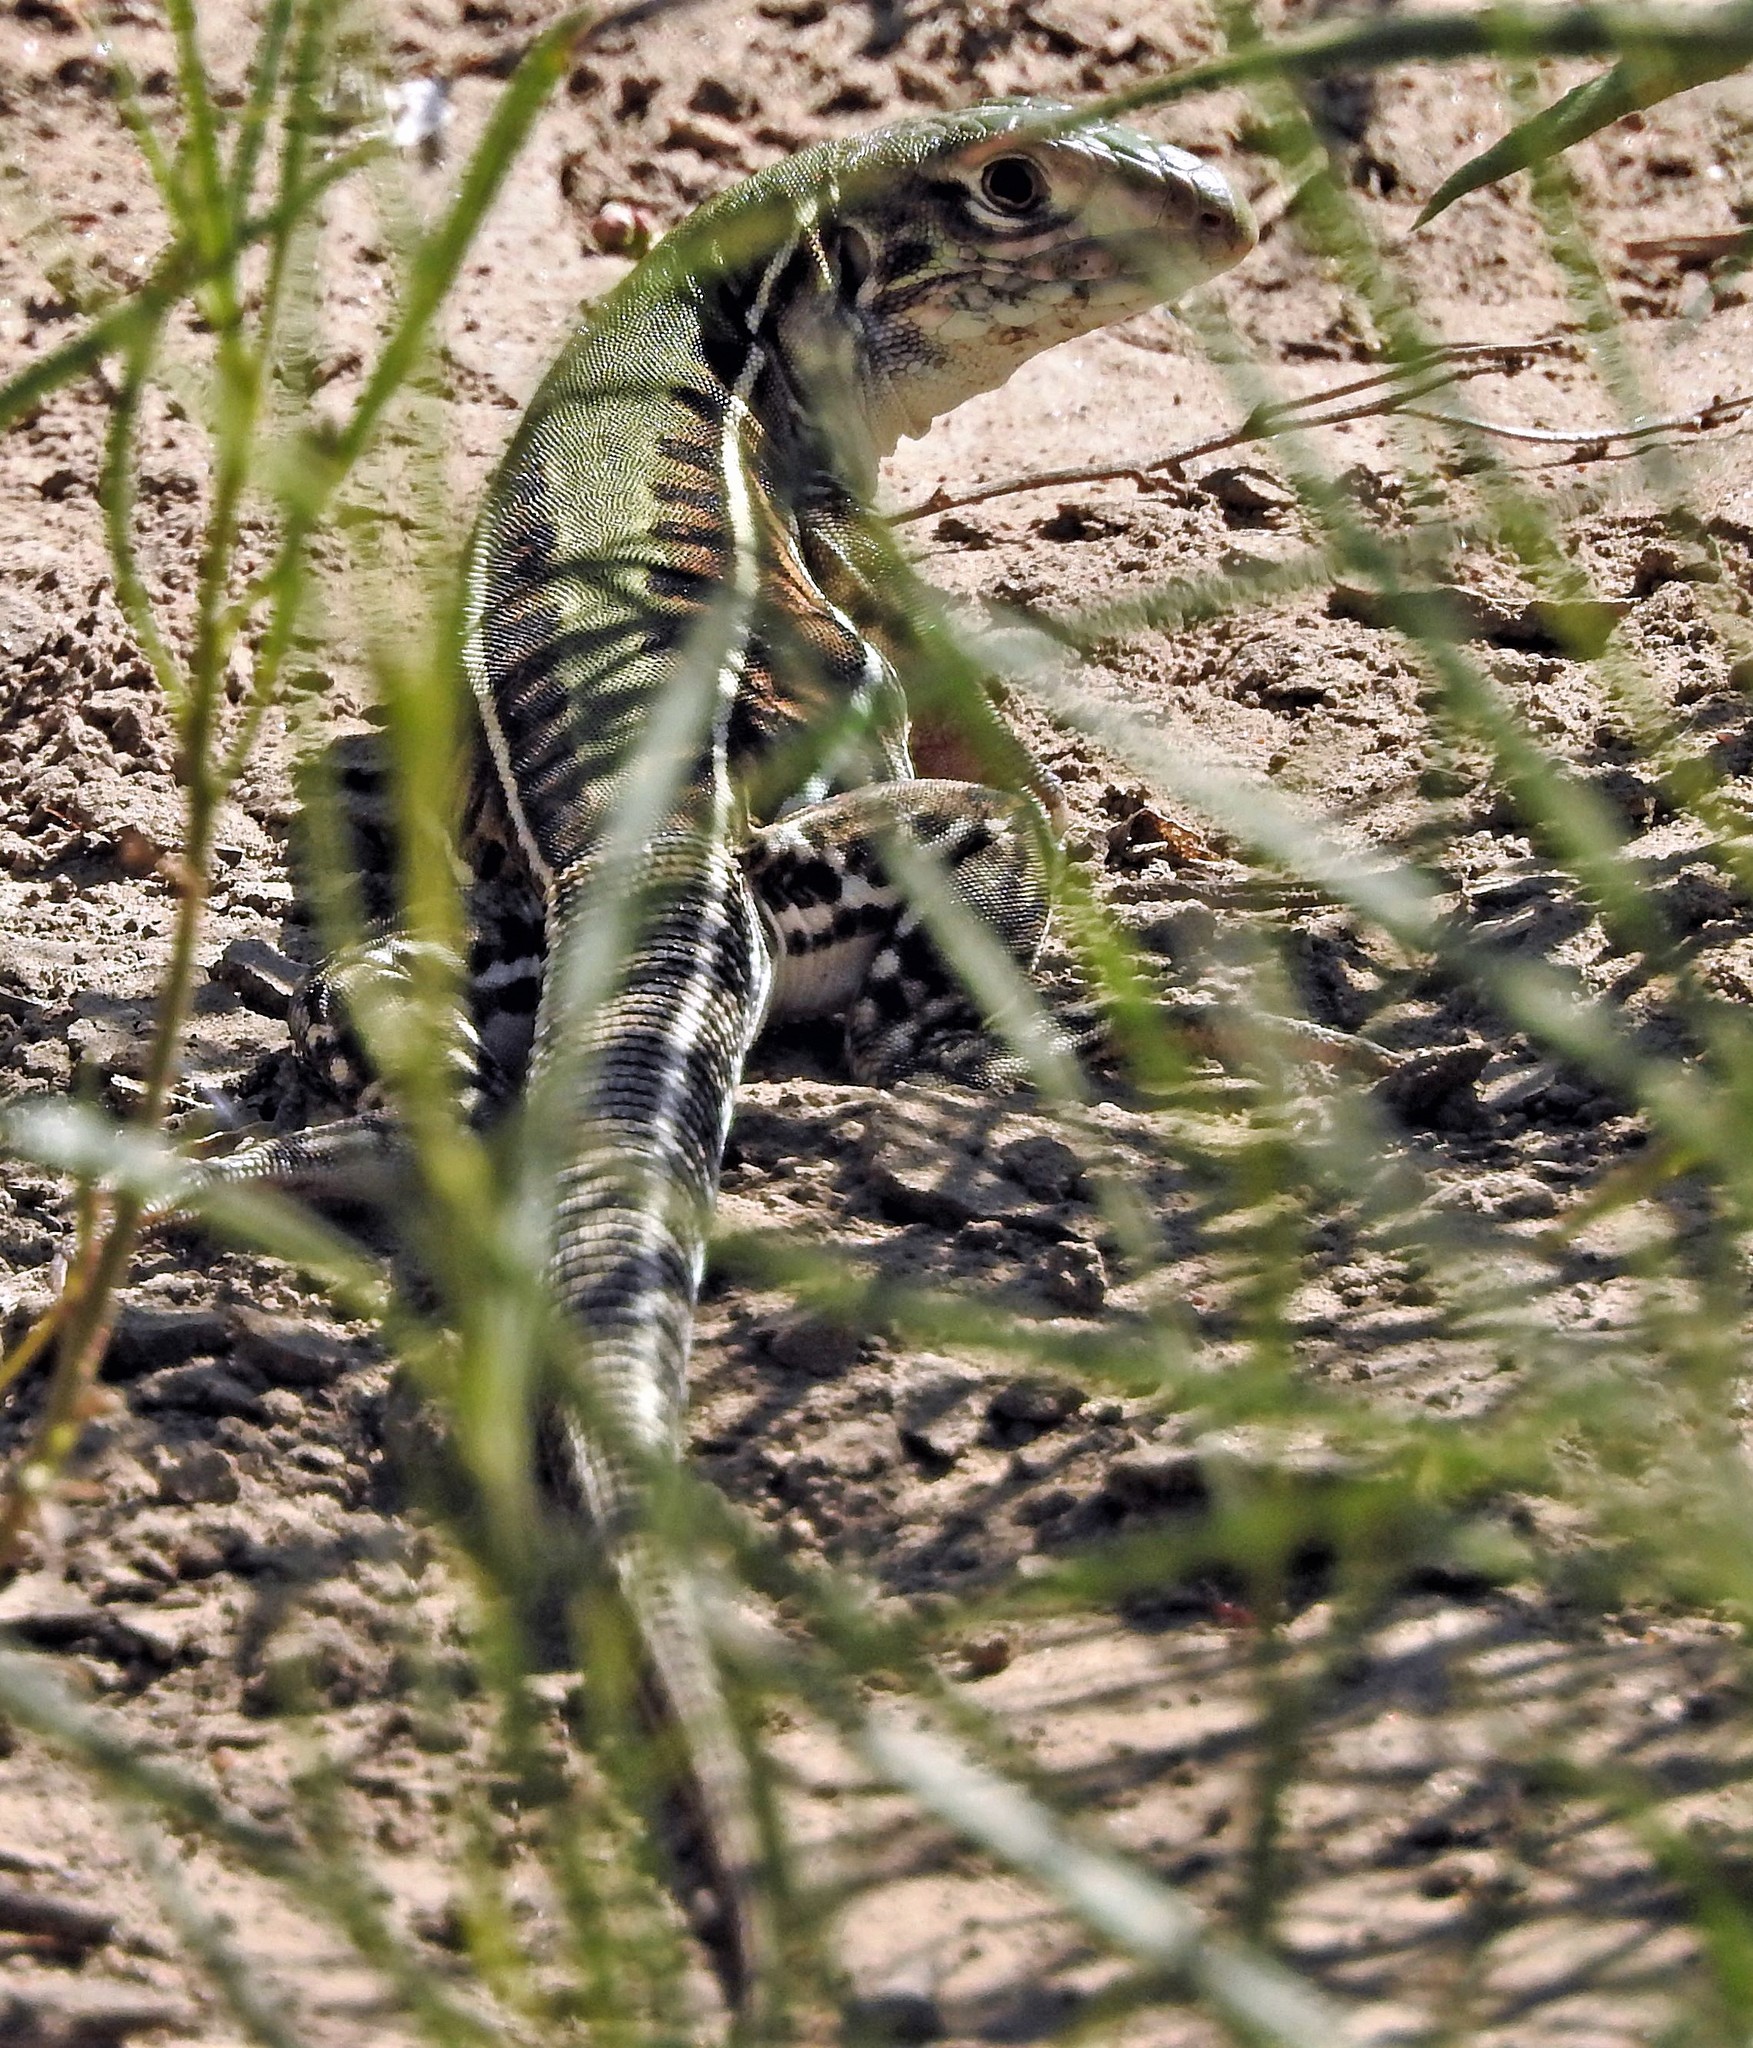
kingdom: Animalia
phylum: Chordata
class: Squamata
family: Teiidae
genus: Teius
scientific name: Teius oculatus
